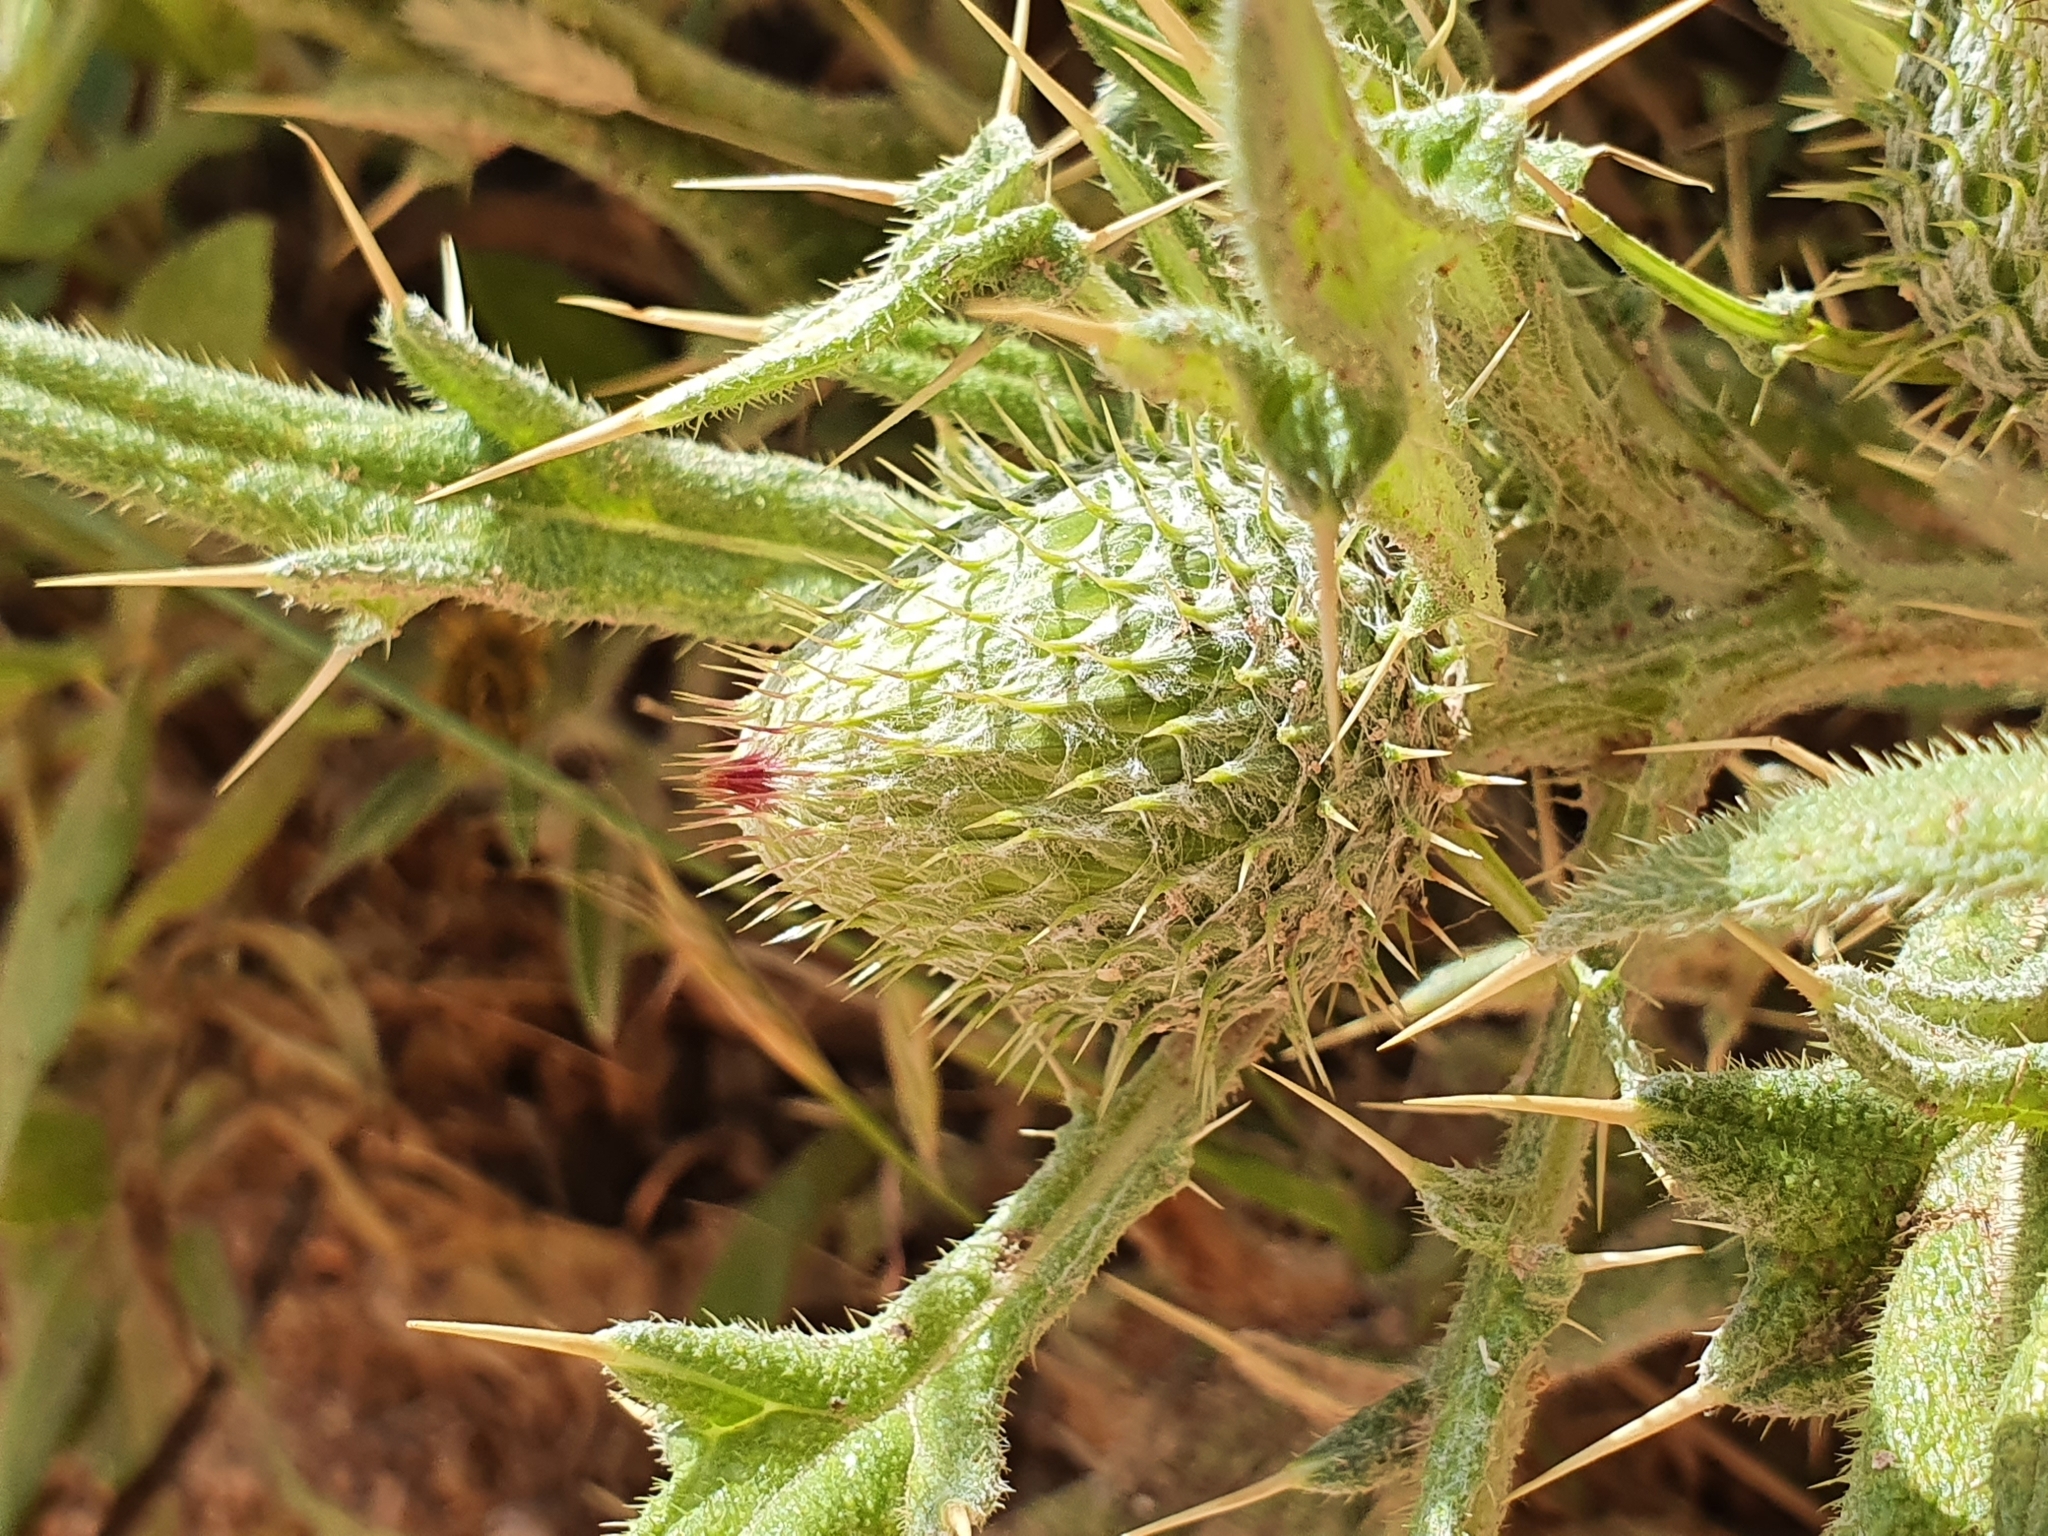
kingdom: Plantae
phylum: Tracheophyta
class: Magnoliopsida
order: Asterales
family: Asteraceae
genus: Lophiolepis
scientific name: Lophiolepis echinata
